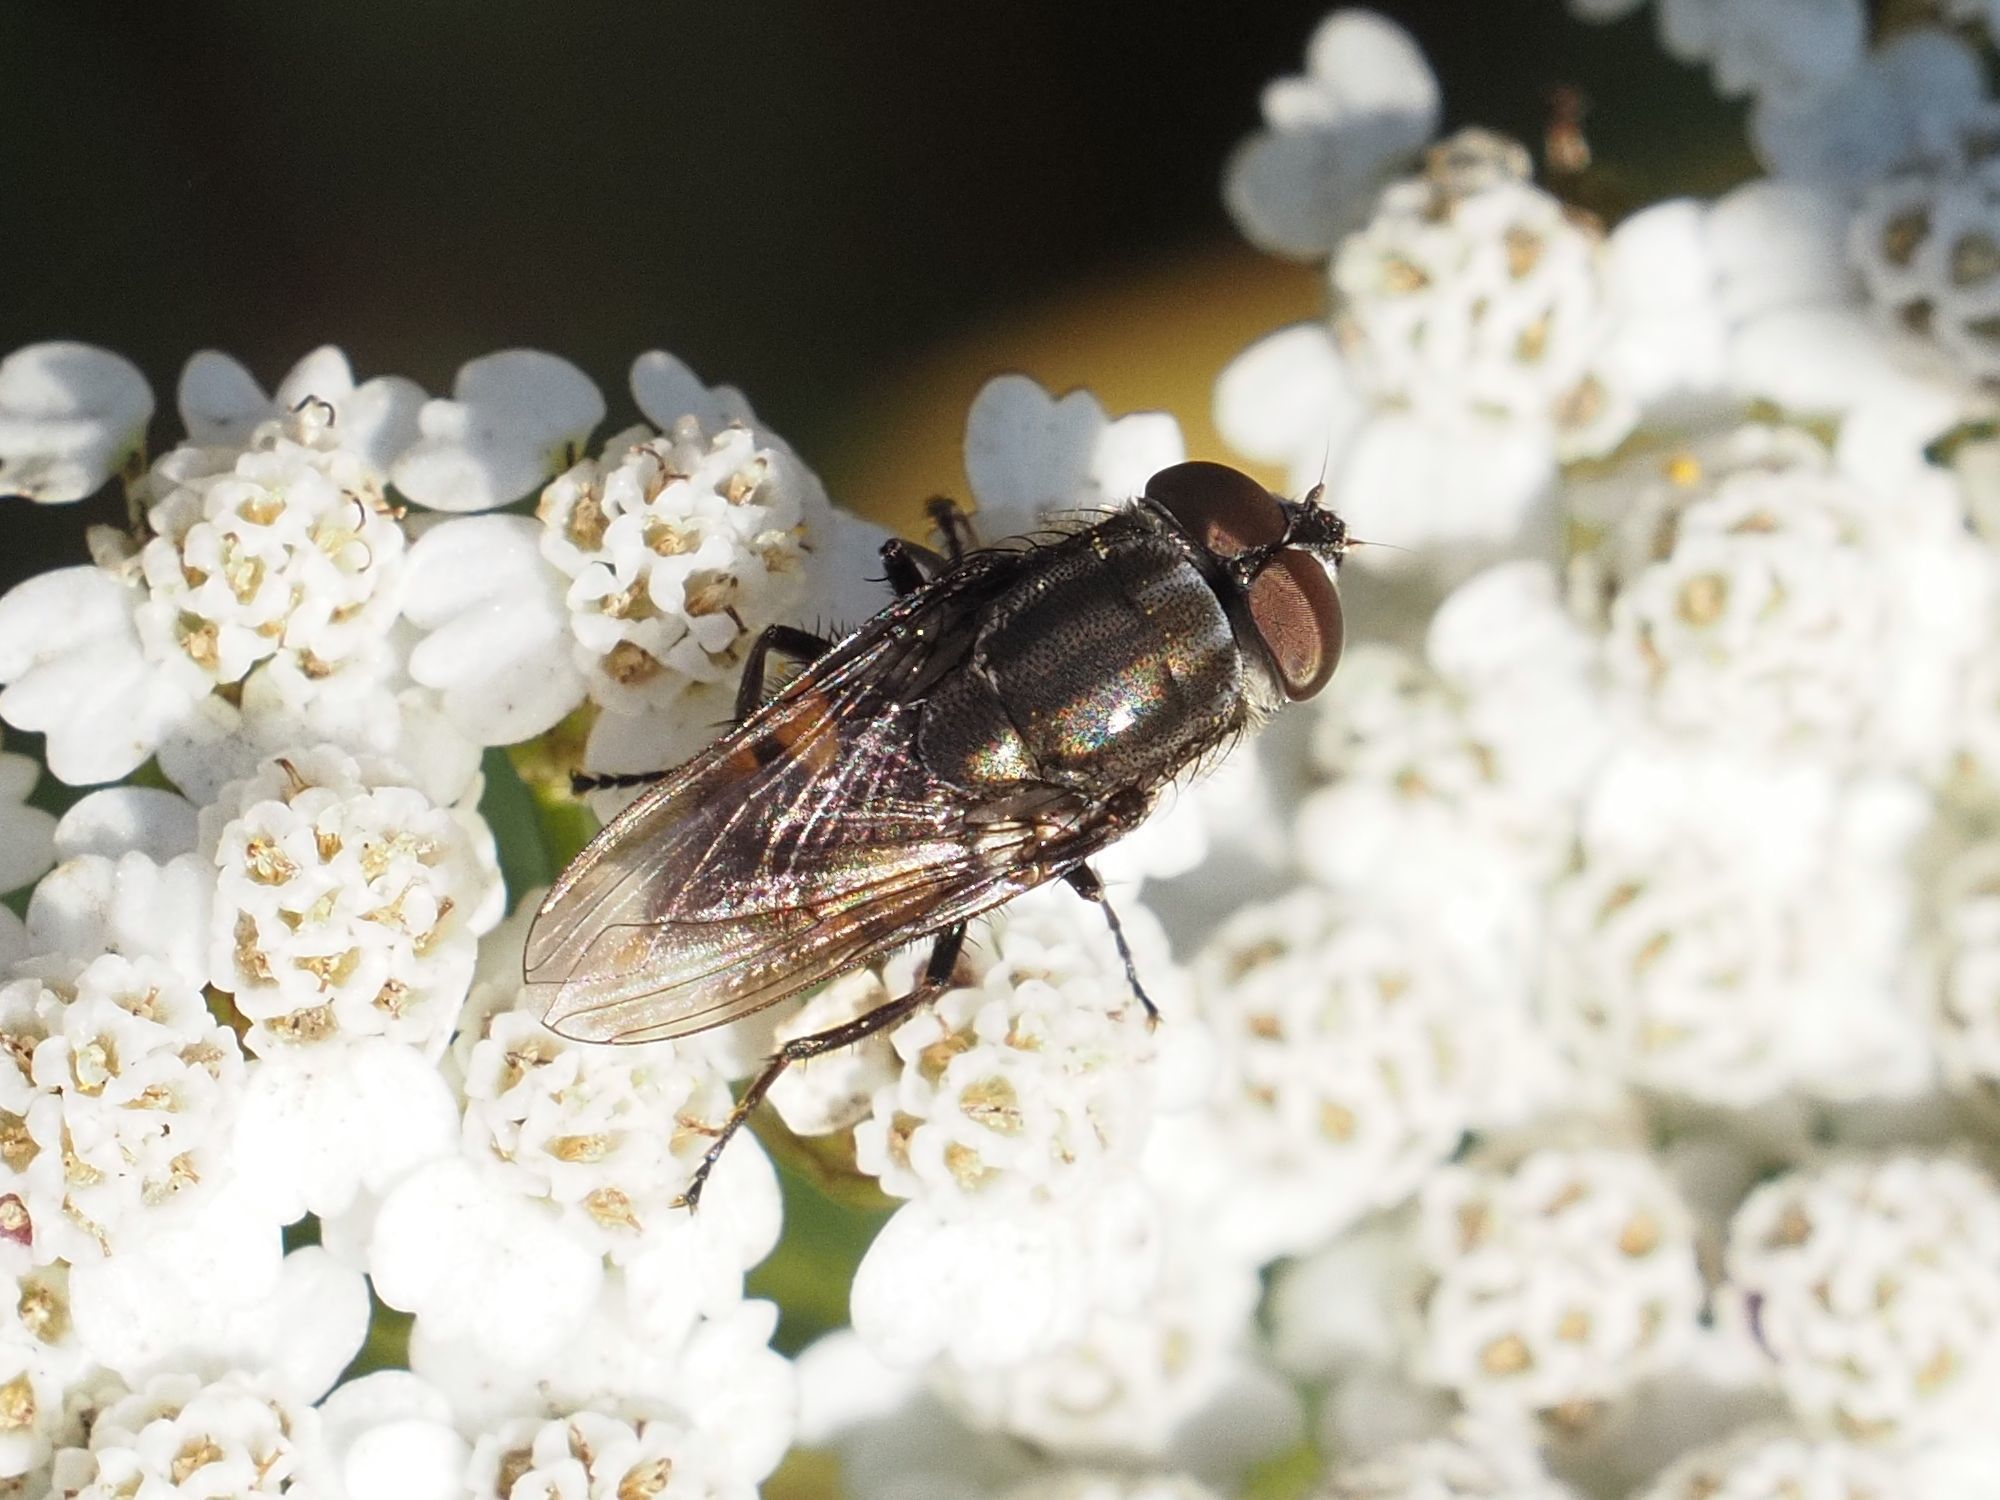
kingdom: Animalia
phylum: Arthropoda
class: Insecta
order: Diptera
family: Calliphoridae
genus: Stomorhina
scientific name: Stomorhina lunata
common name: Locust blowfly
